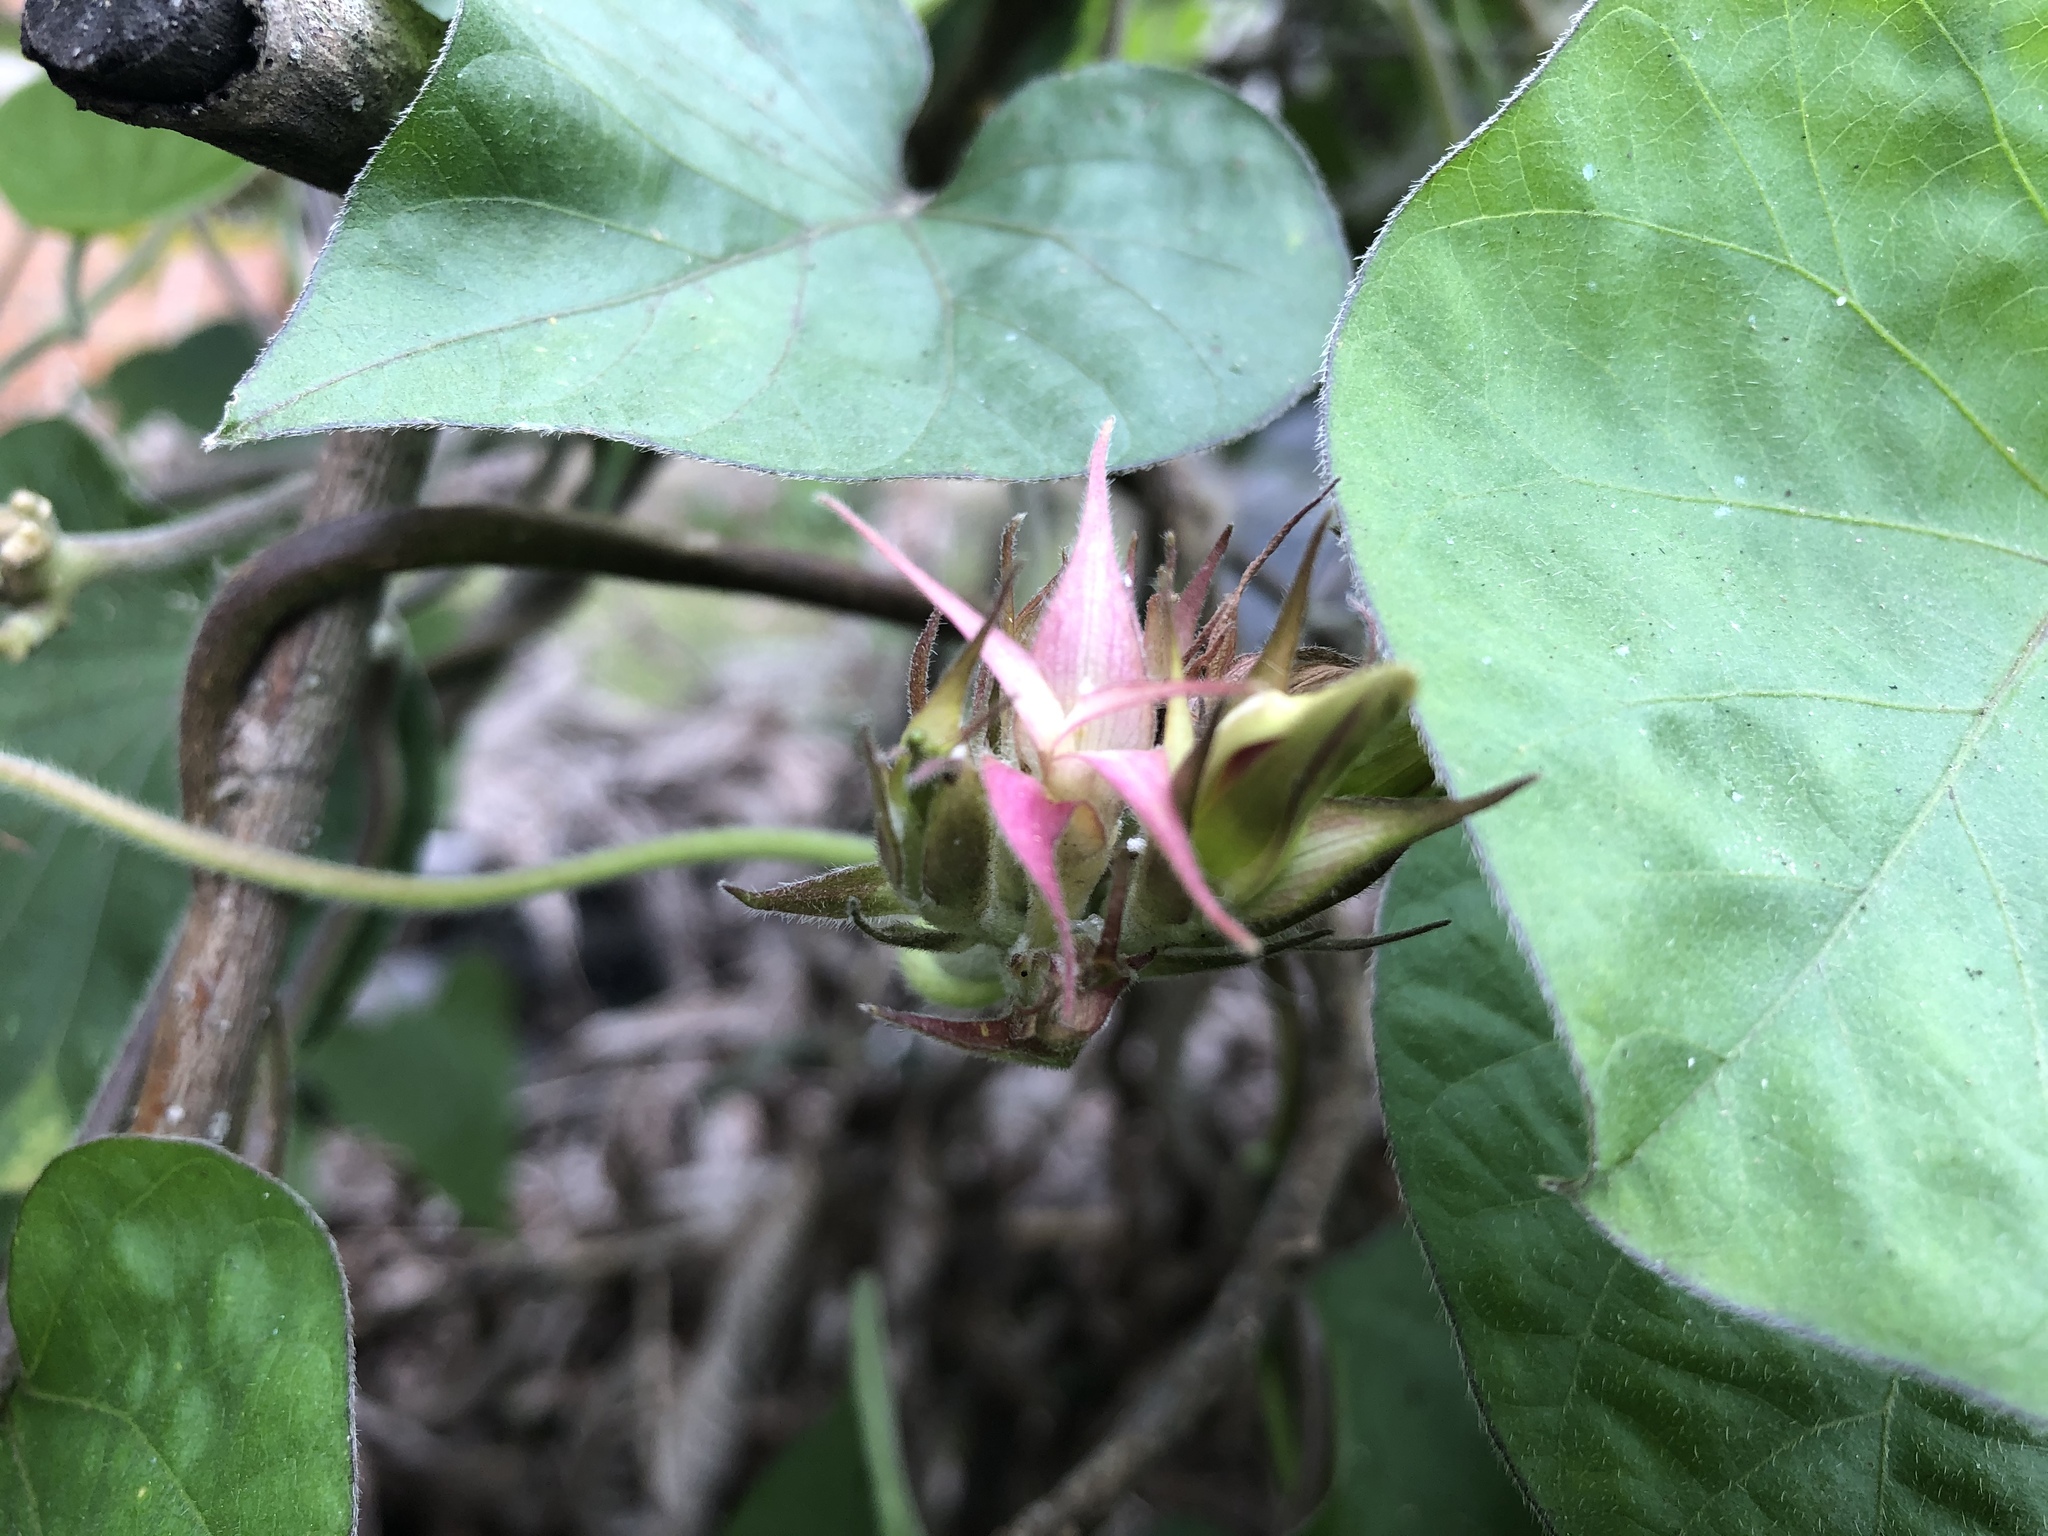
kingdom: Plantae
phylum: Tracheophyta
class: Magnoliopsida
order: Solanales
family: Convolvulaceae
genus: Ipomoea
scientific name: Ipomoea indica
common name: Blue dawnflower
